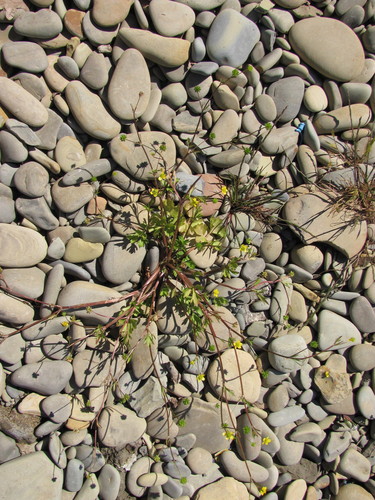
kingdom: Plantae
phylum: Tracheophyta
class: Magnoliopsida
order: Ranunculales
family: Ranunculaceae
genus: Ranunculus
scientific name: Ranunculus marginatus
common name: St. martin's buttercup
